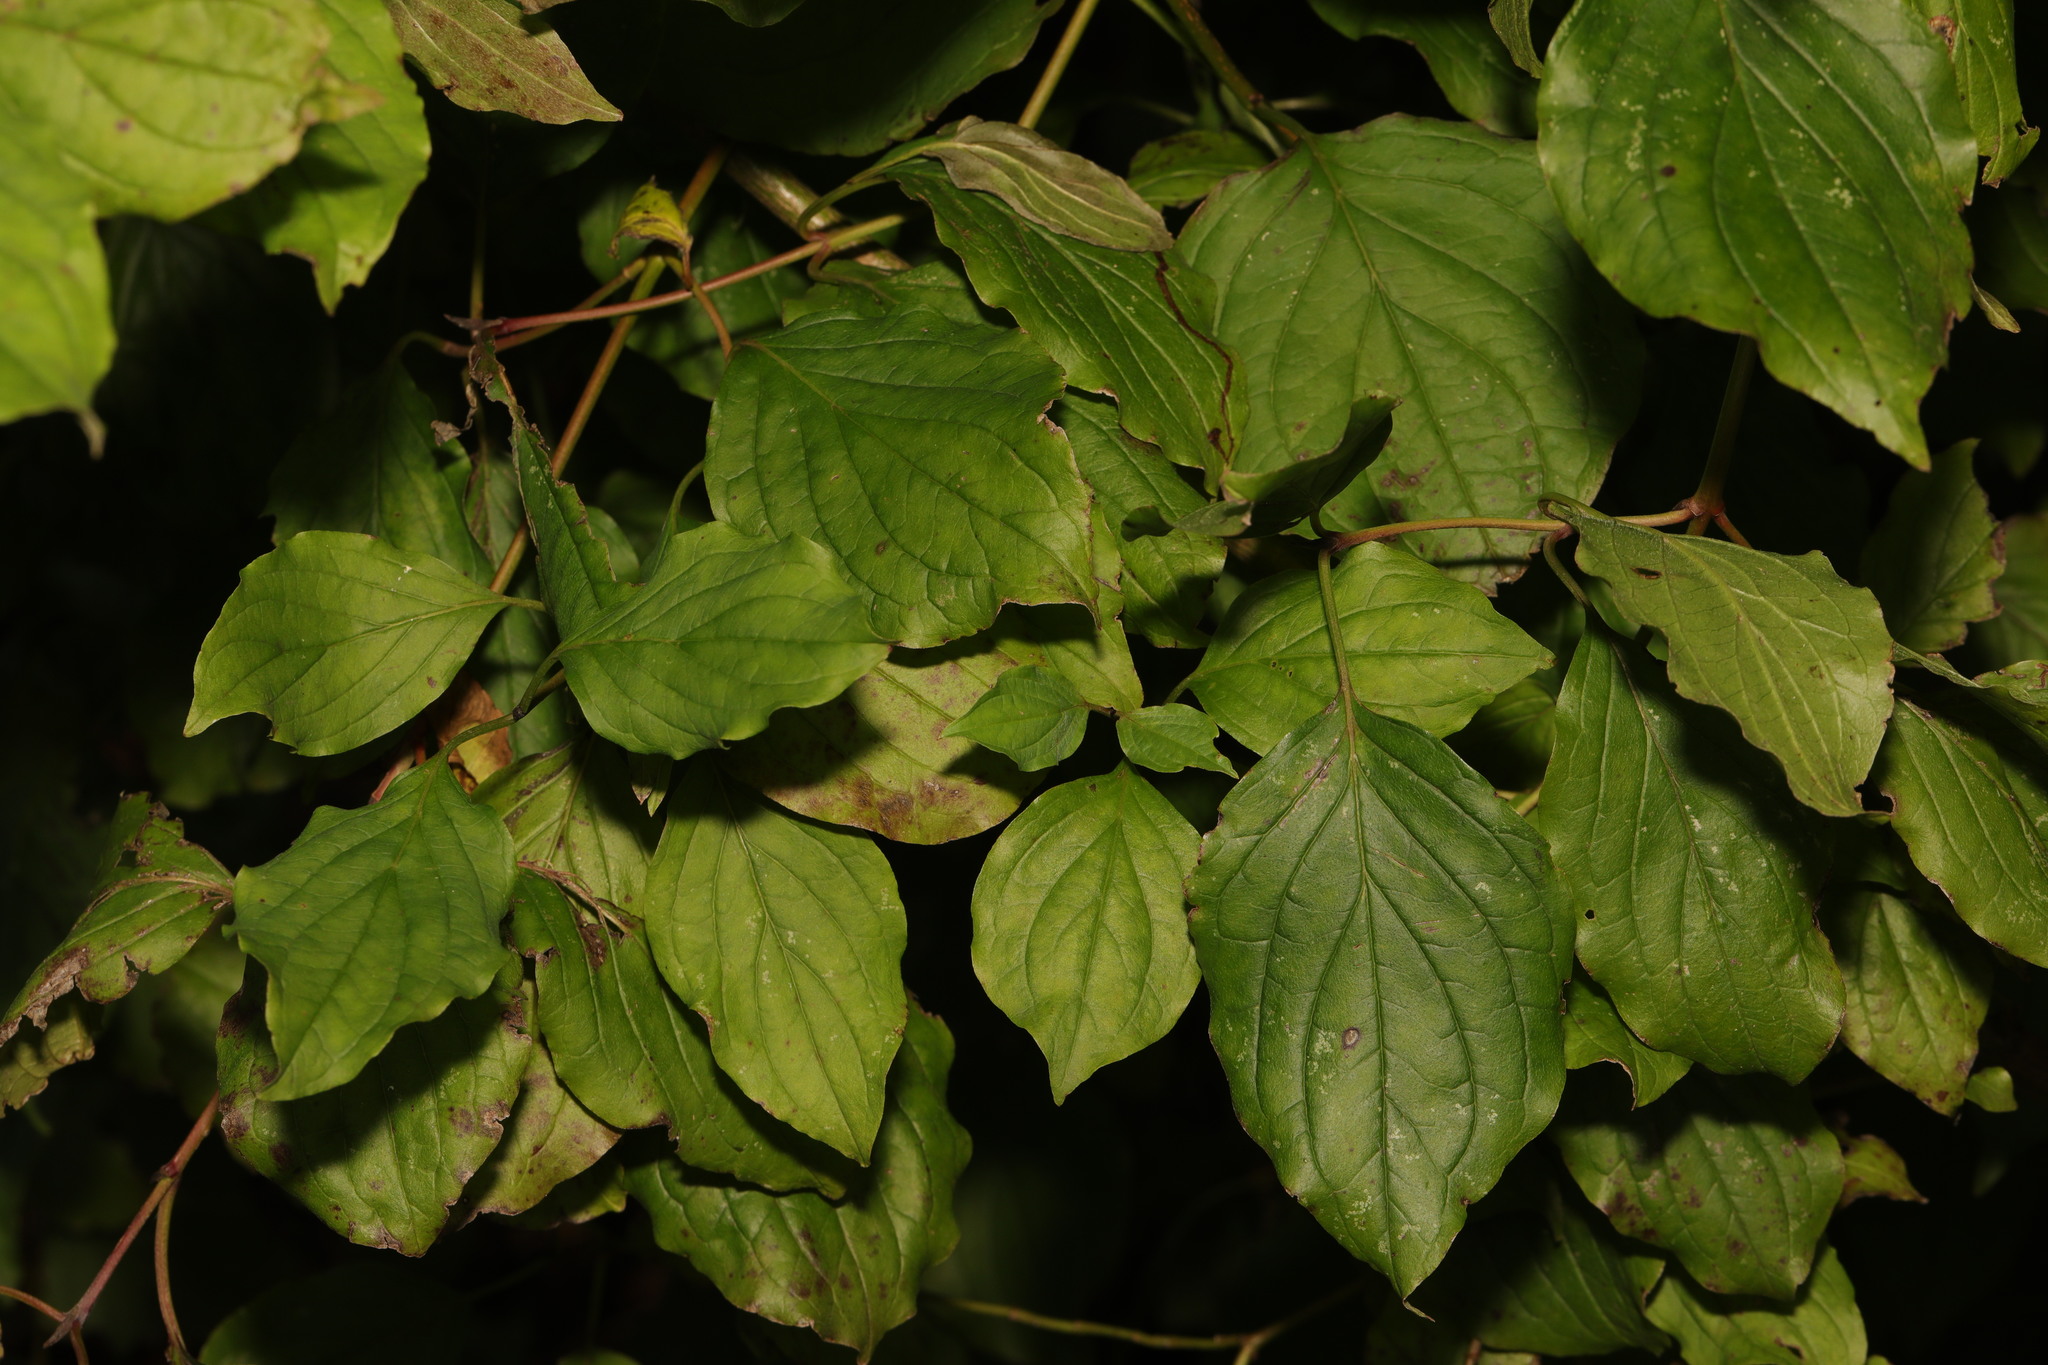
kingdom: Plantae
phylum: Tracheophyta
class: Magnoliopsida
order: Cornales
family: Cornaceae
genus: Cornus
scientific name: Cornus sanguinea
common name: Dogwood
